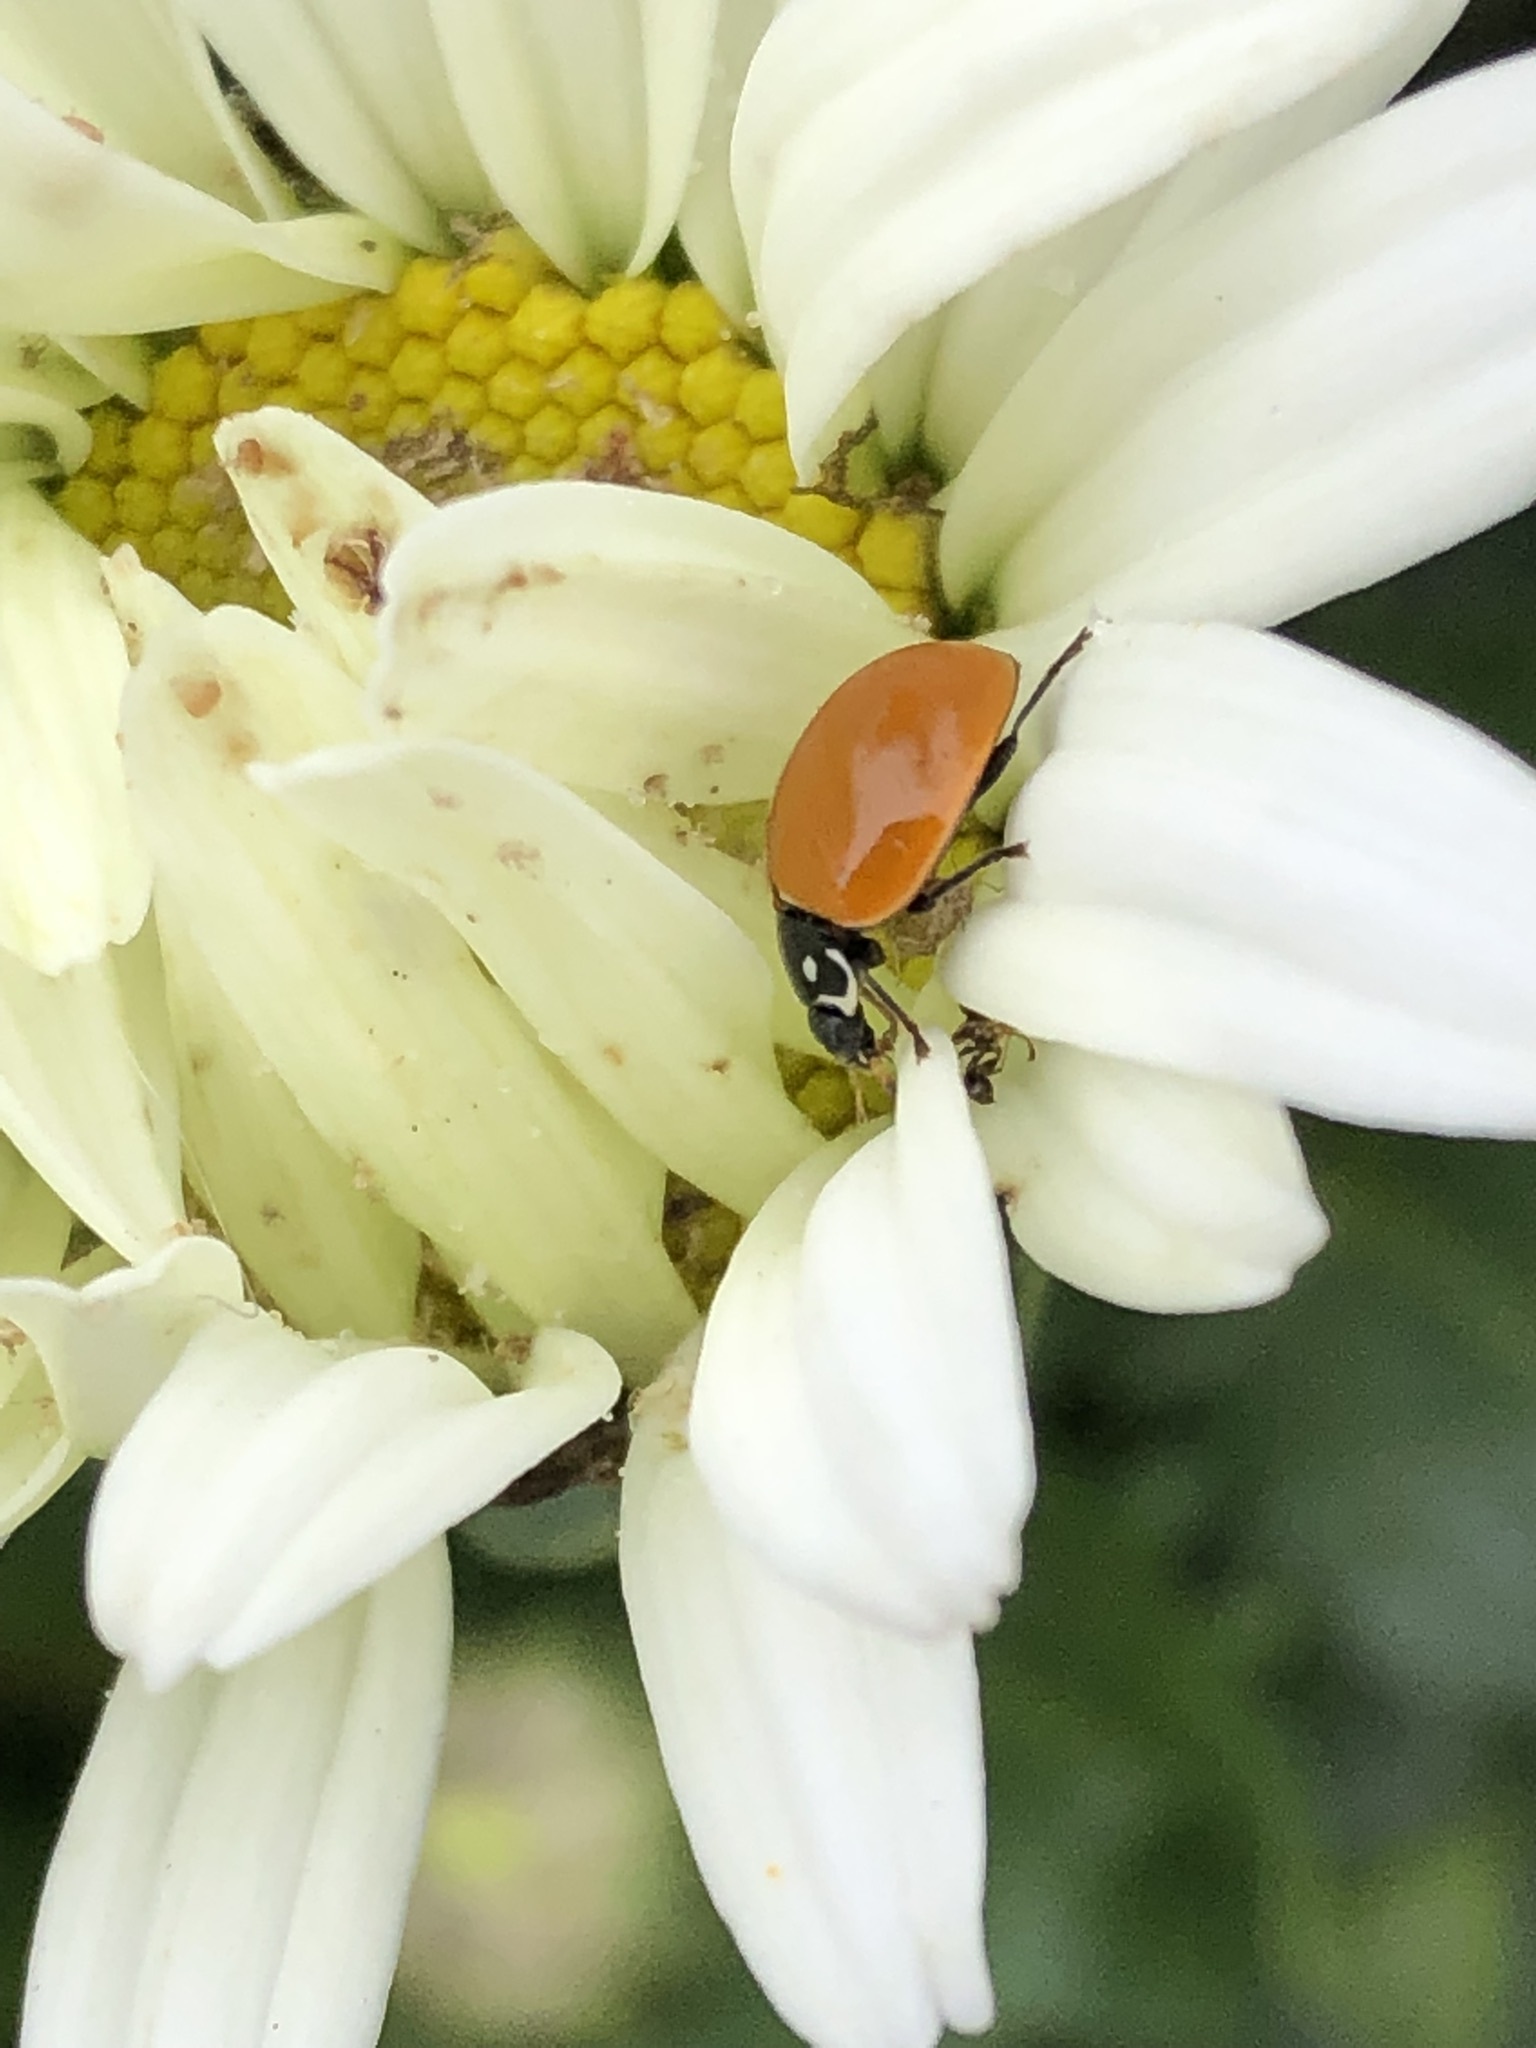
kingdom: Animalia
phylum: Arthropoda
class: Insecta
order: Coleoptera
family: Coccinellidae
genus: Cycloneda
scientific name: Cycloneda sanguinea
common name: Ladybird beetle
